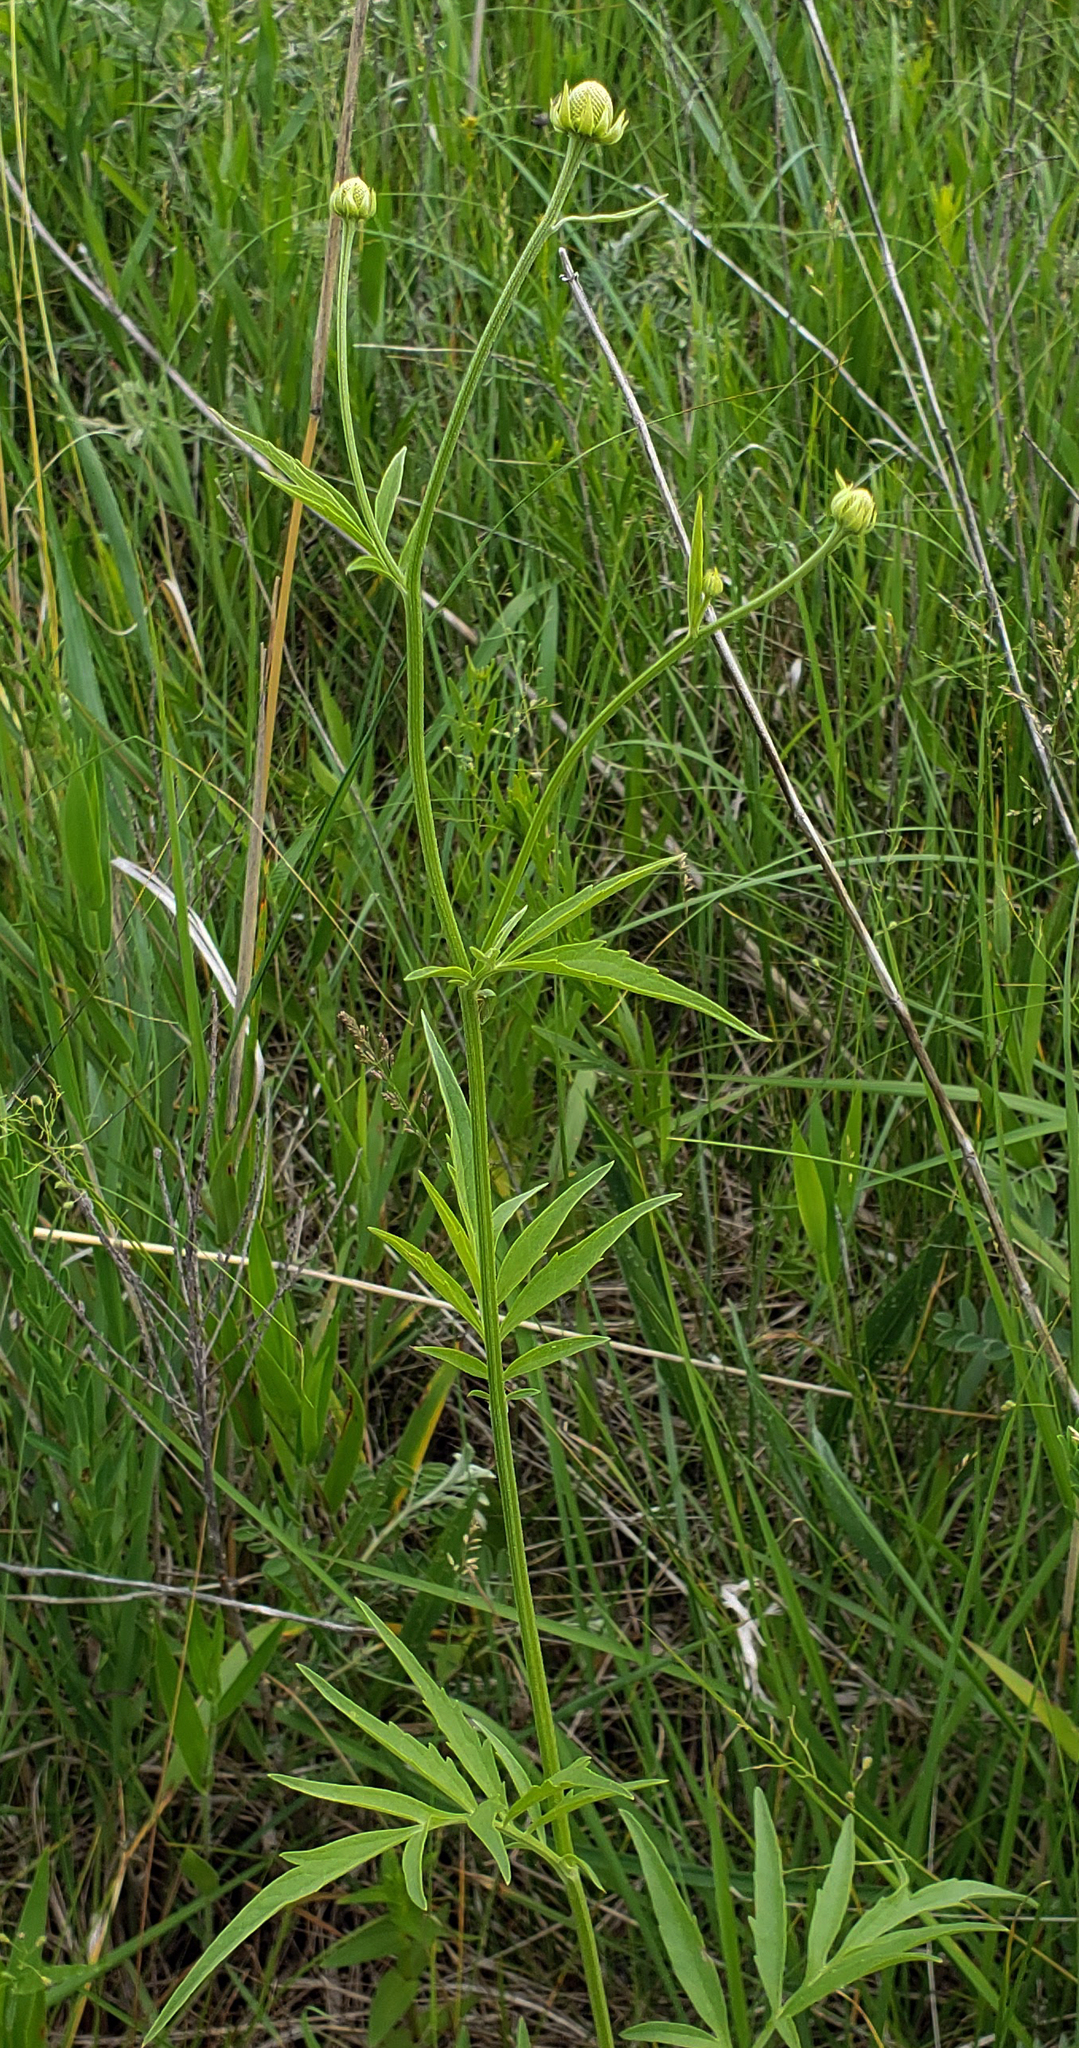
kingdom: Plantae
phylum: Tracheophyta
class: Magnoliopsida
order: Asterales
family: Asteraceae
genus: Ratibida
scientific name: Ratibida pinnata
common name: Drooping prairie-coneflower
